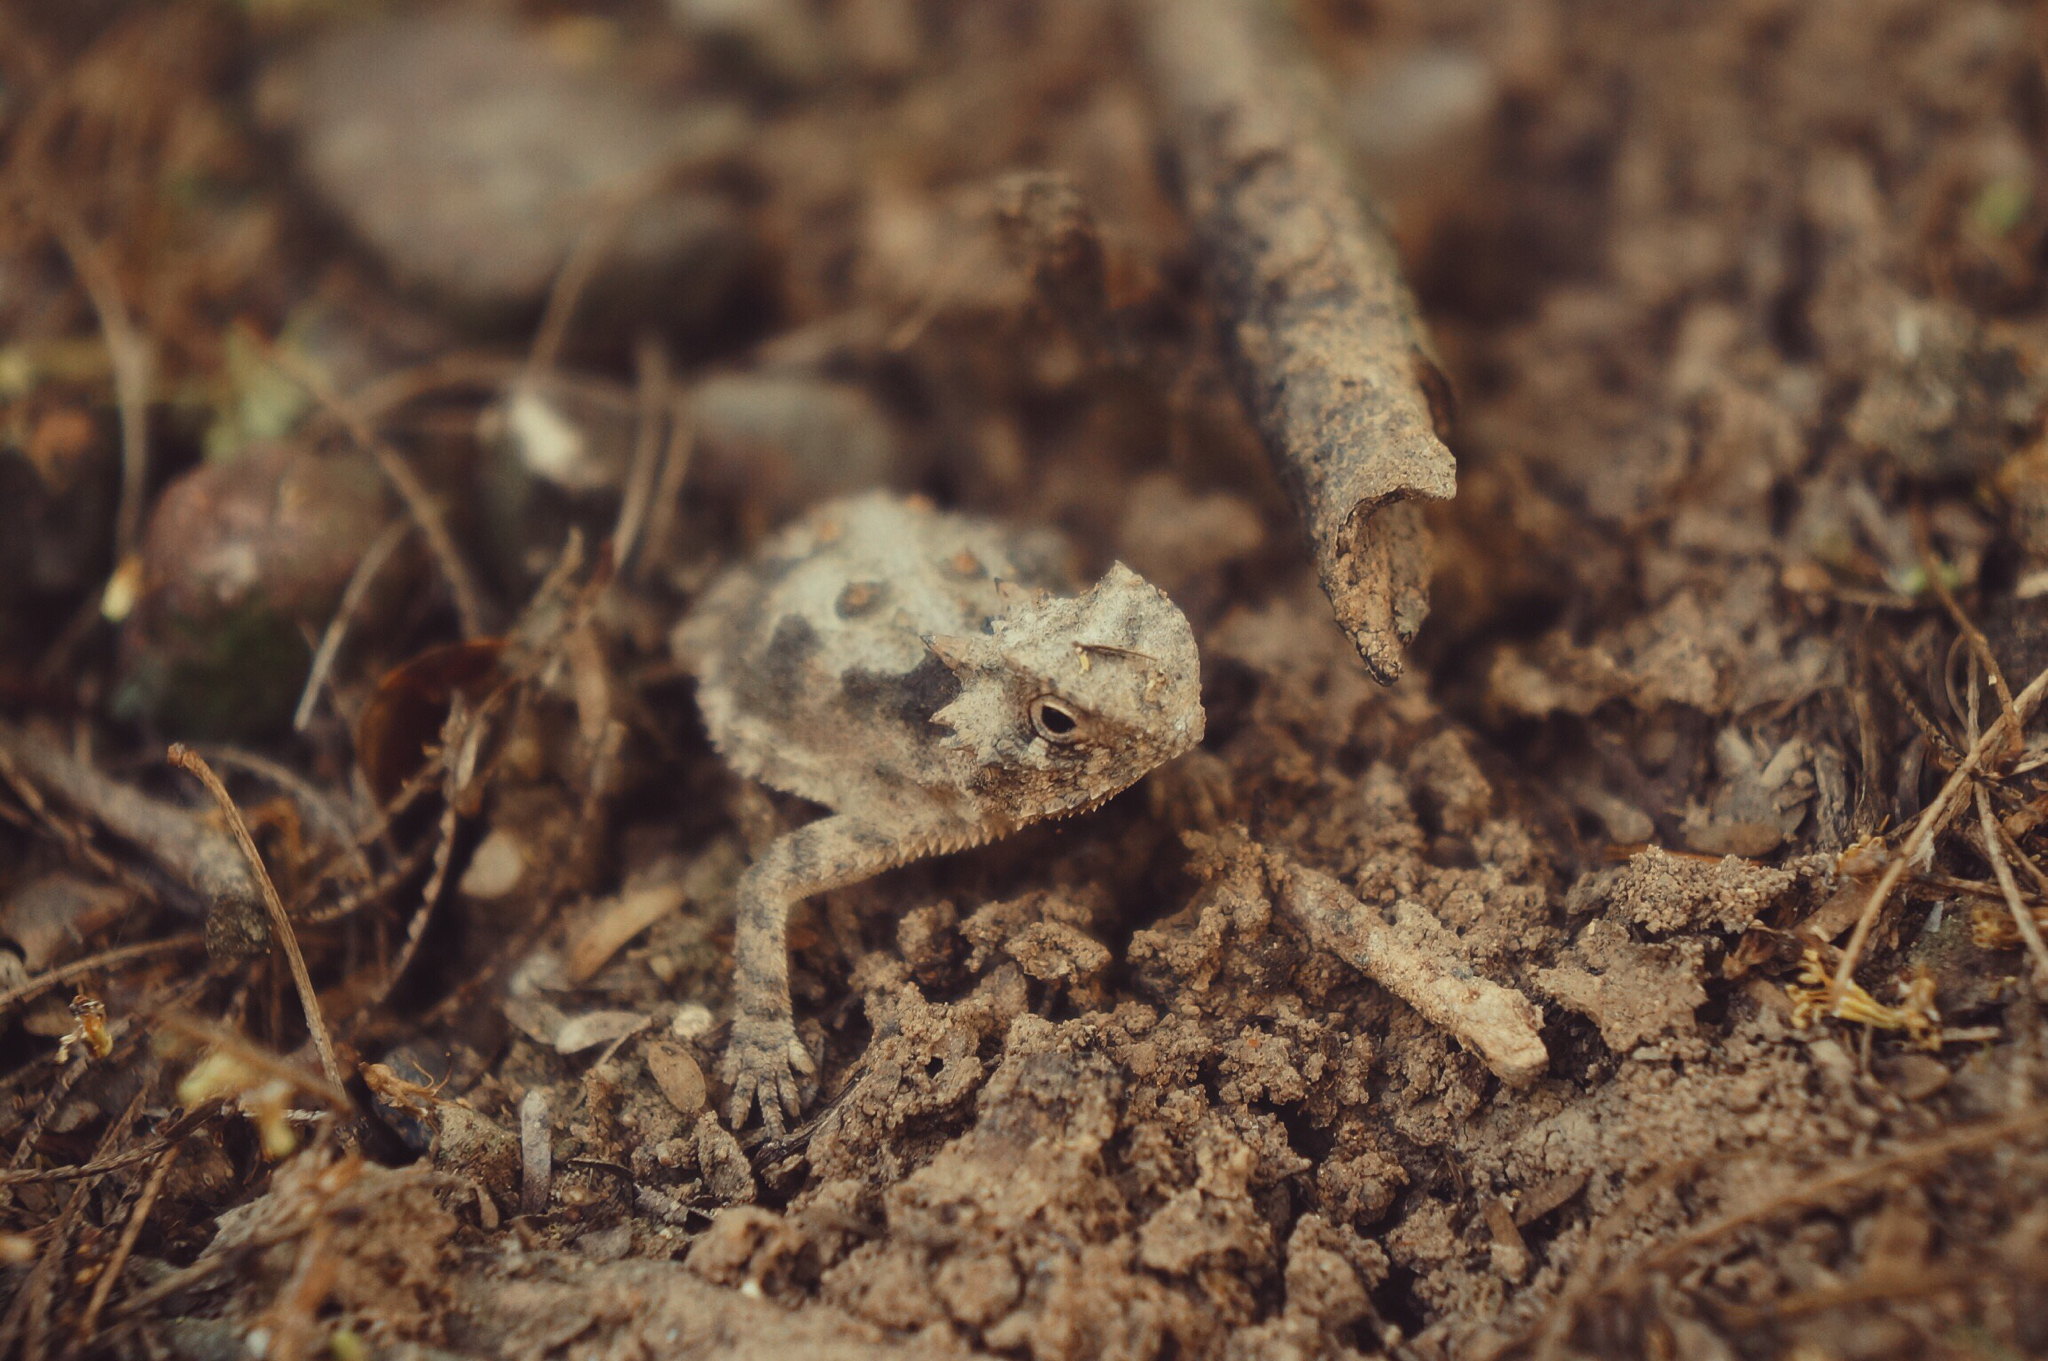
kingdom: Animalia
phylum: Chordata
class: Squamata
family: Phrynosomatidae
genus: Phrynosoma
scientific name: Phrynosoma cornutum
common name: Texas horned lizard
